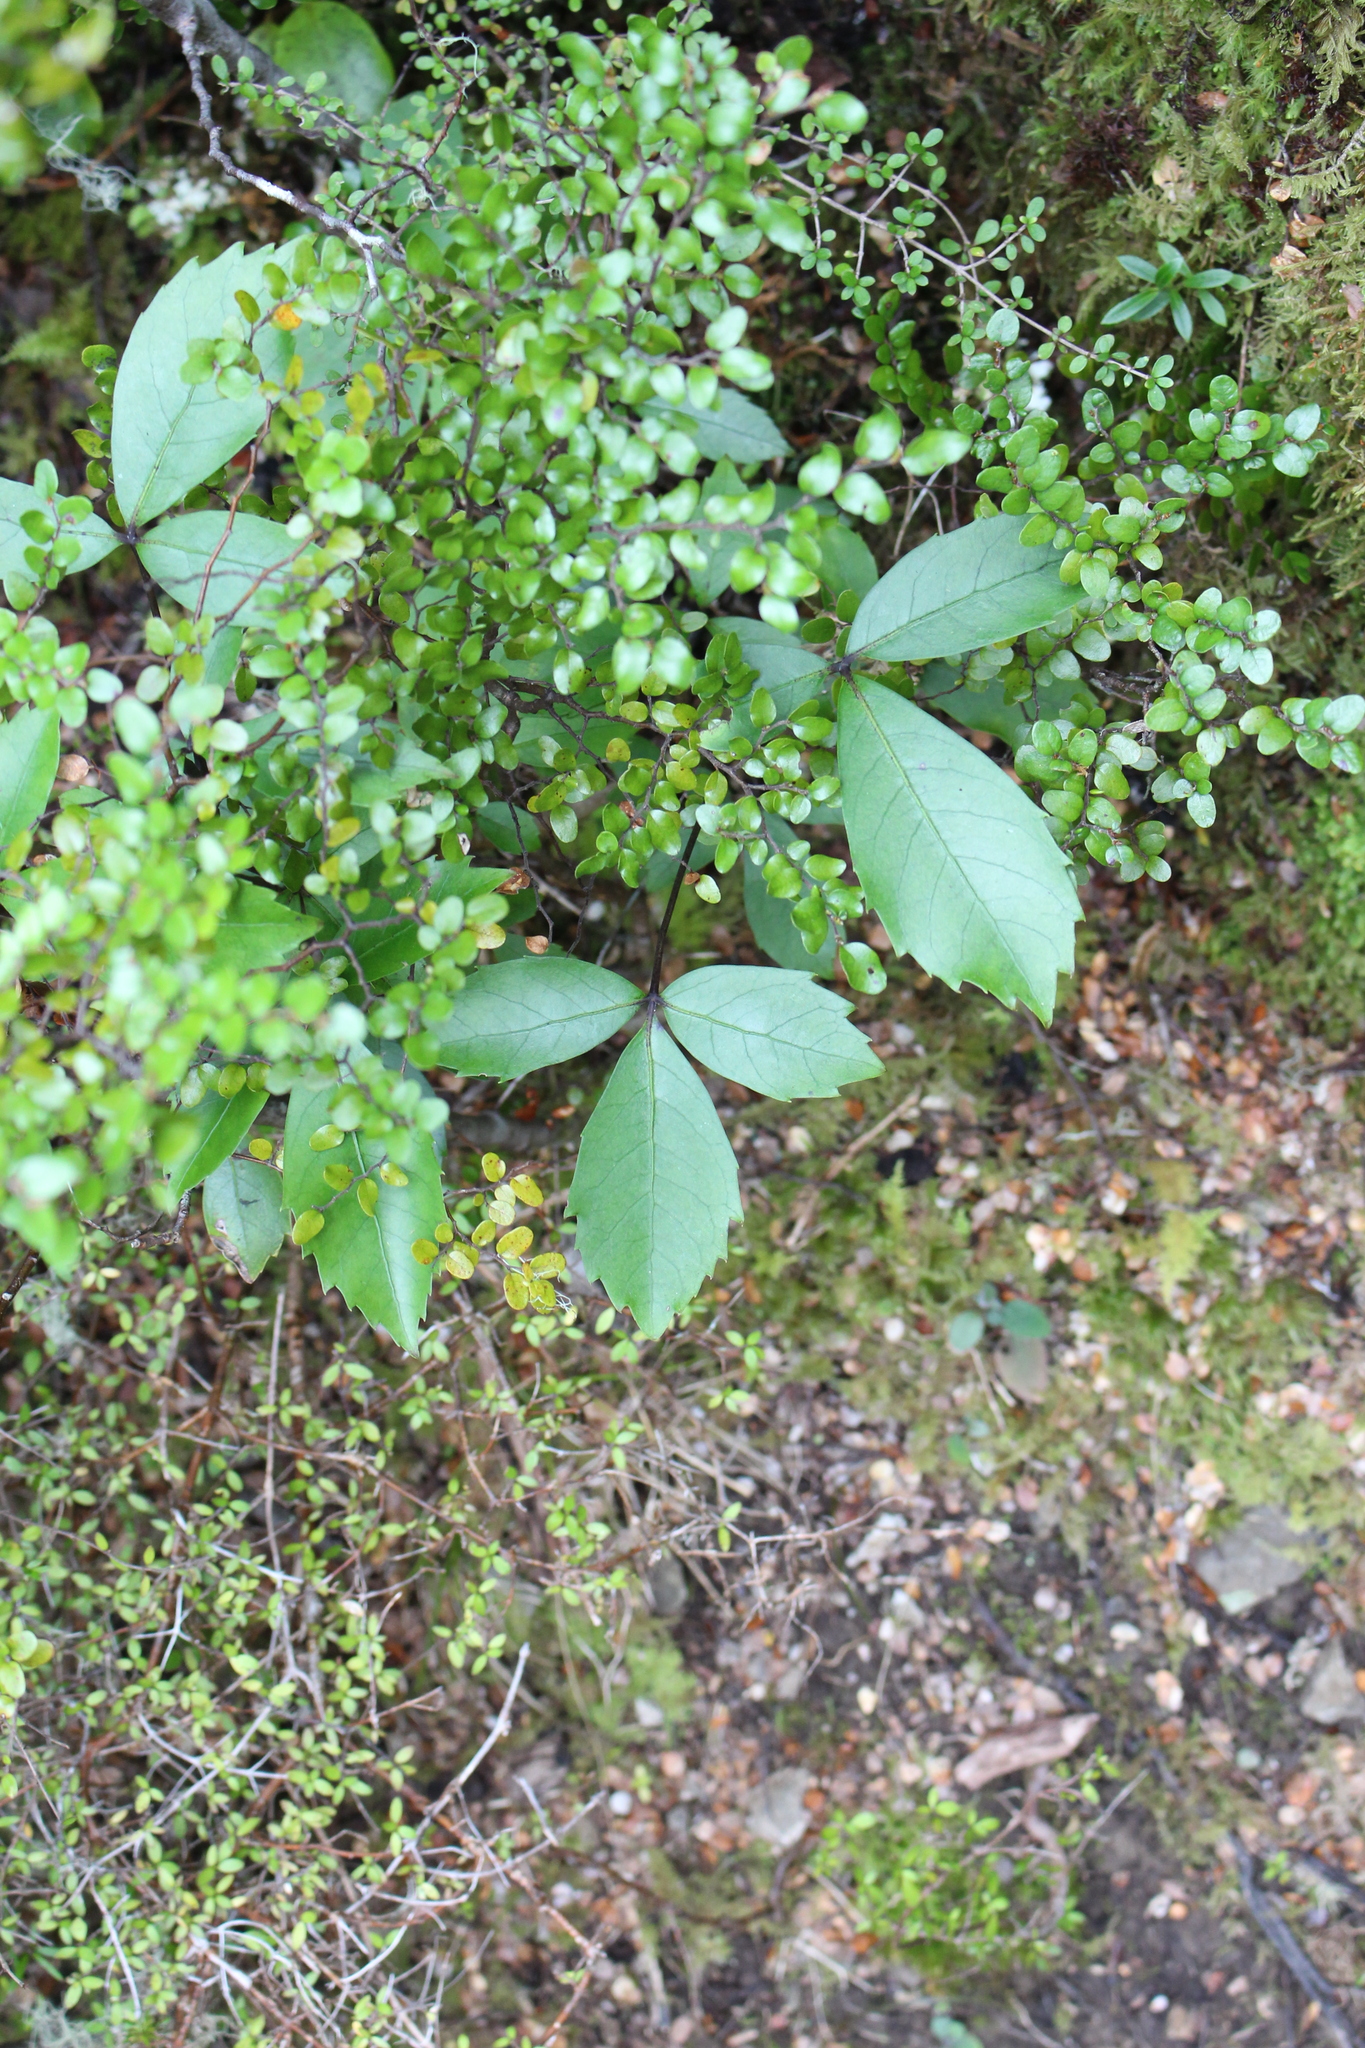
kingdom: Plantae
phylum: Tracheophyta
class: Magnoliopsida
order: Apiales
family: Araliaceae
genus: Neopanax
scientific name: Neopanax colensoi
